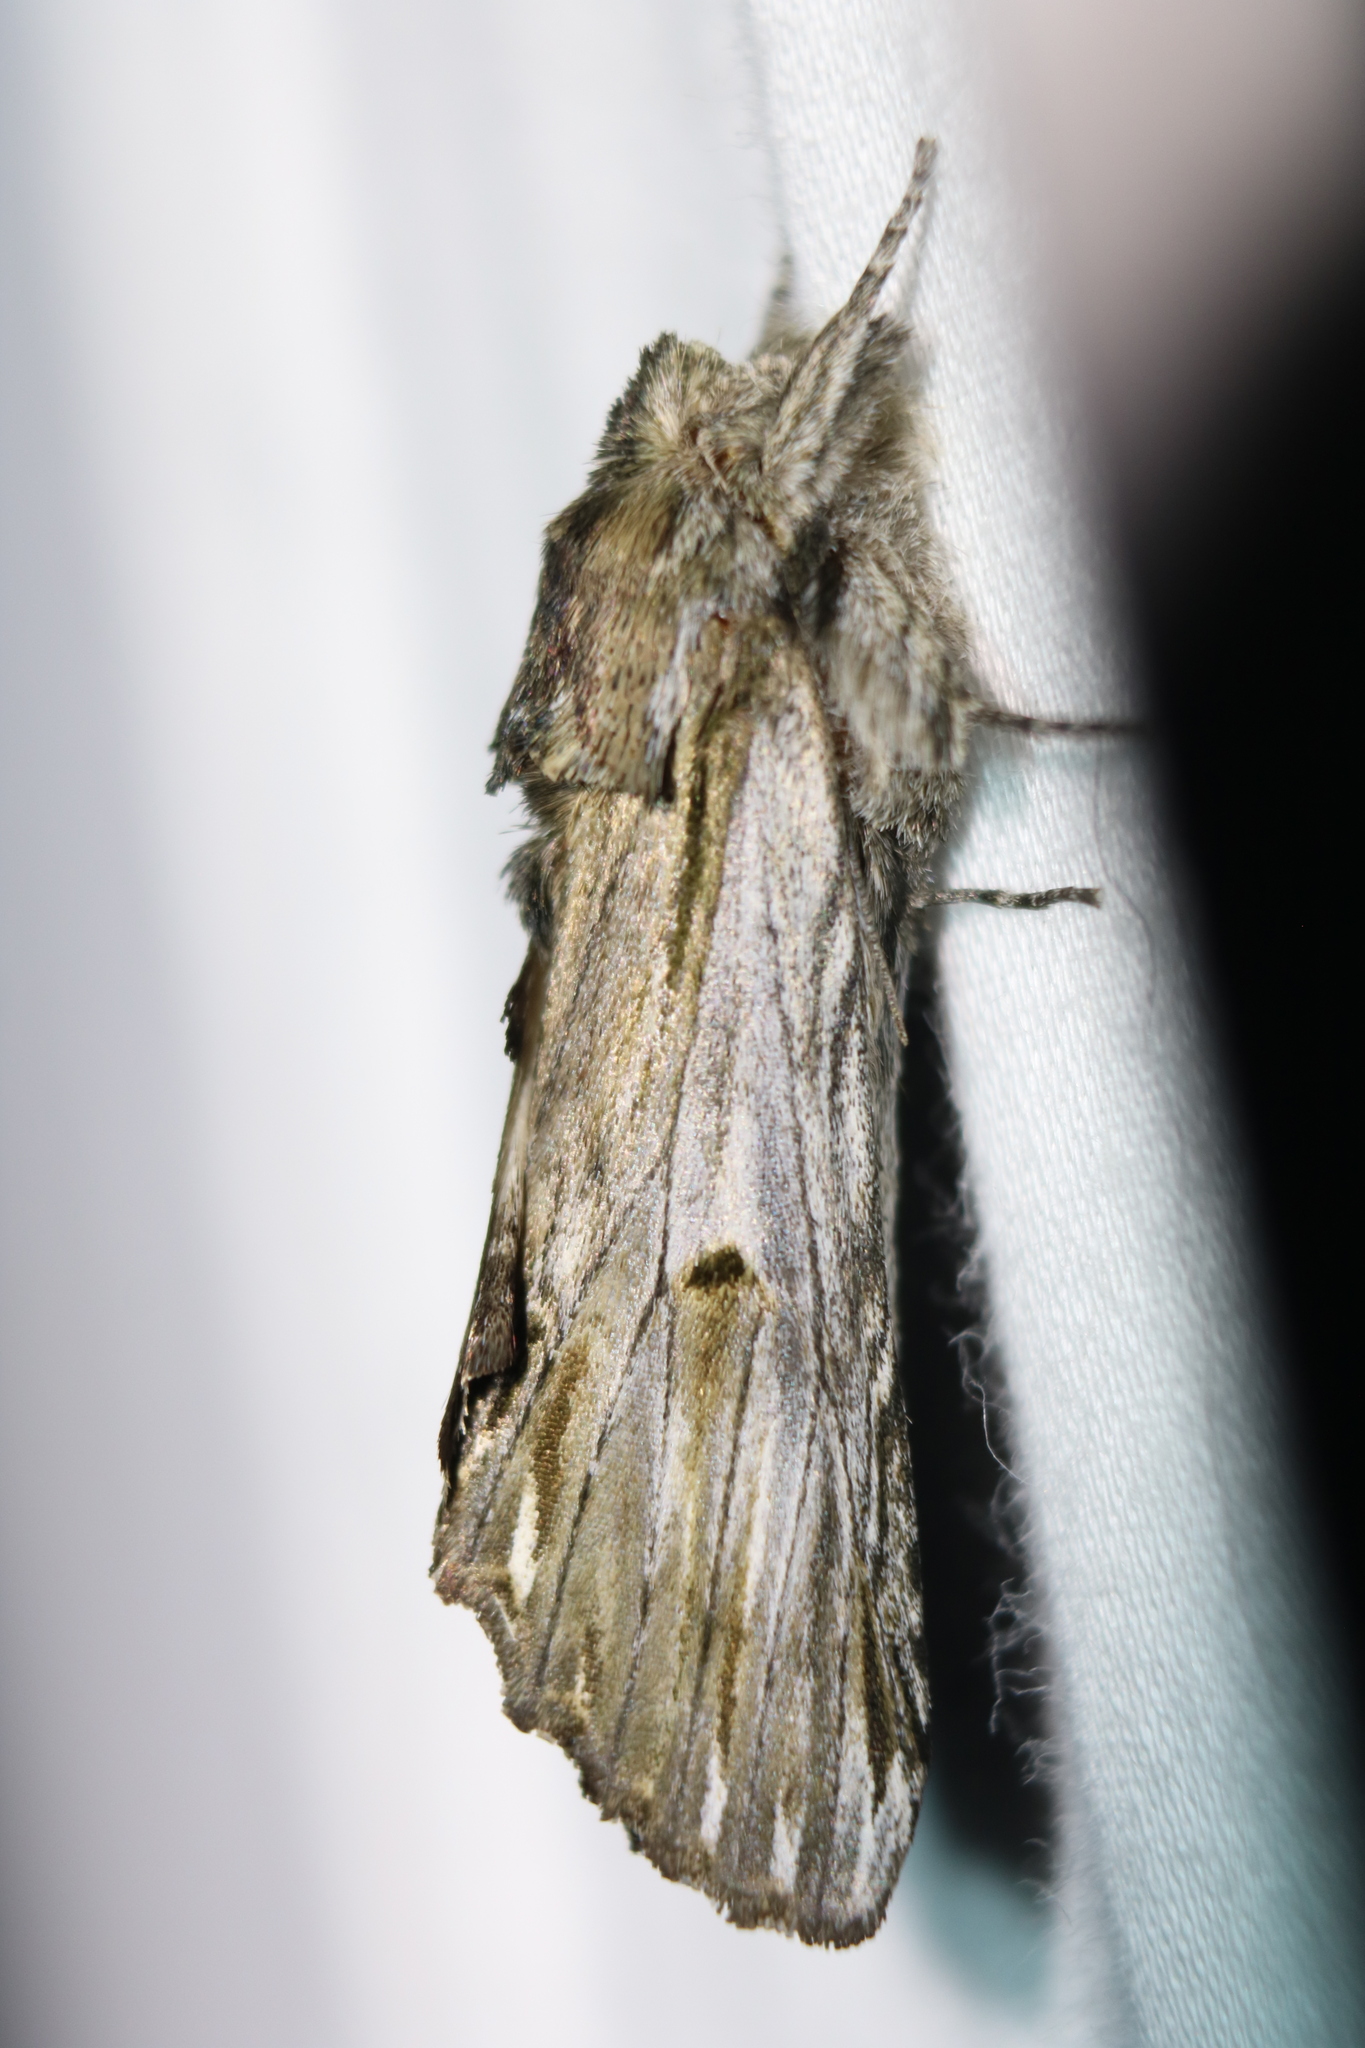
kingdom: Animalia
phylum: Arthropoda
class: Insecta
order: Lepidoptera
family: Notodontidae
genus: Oligocentria
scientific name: Oligocentria Ianassa lignicolor
